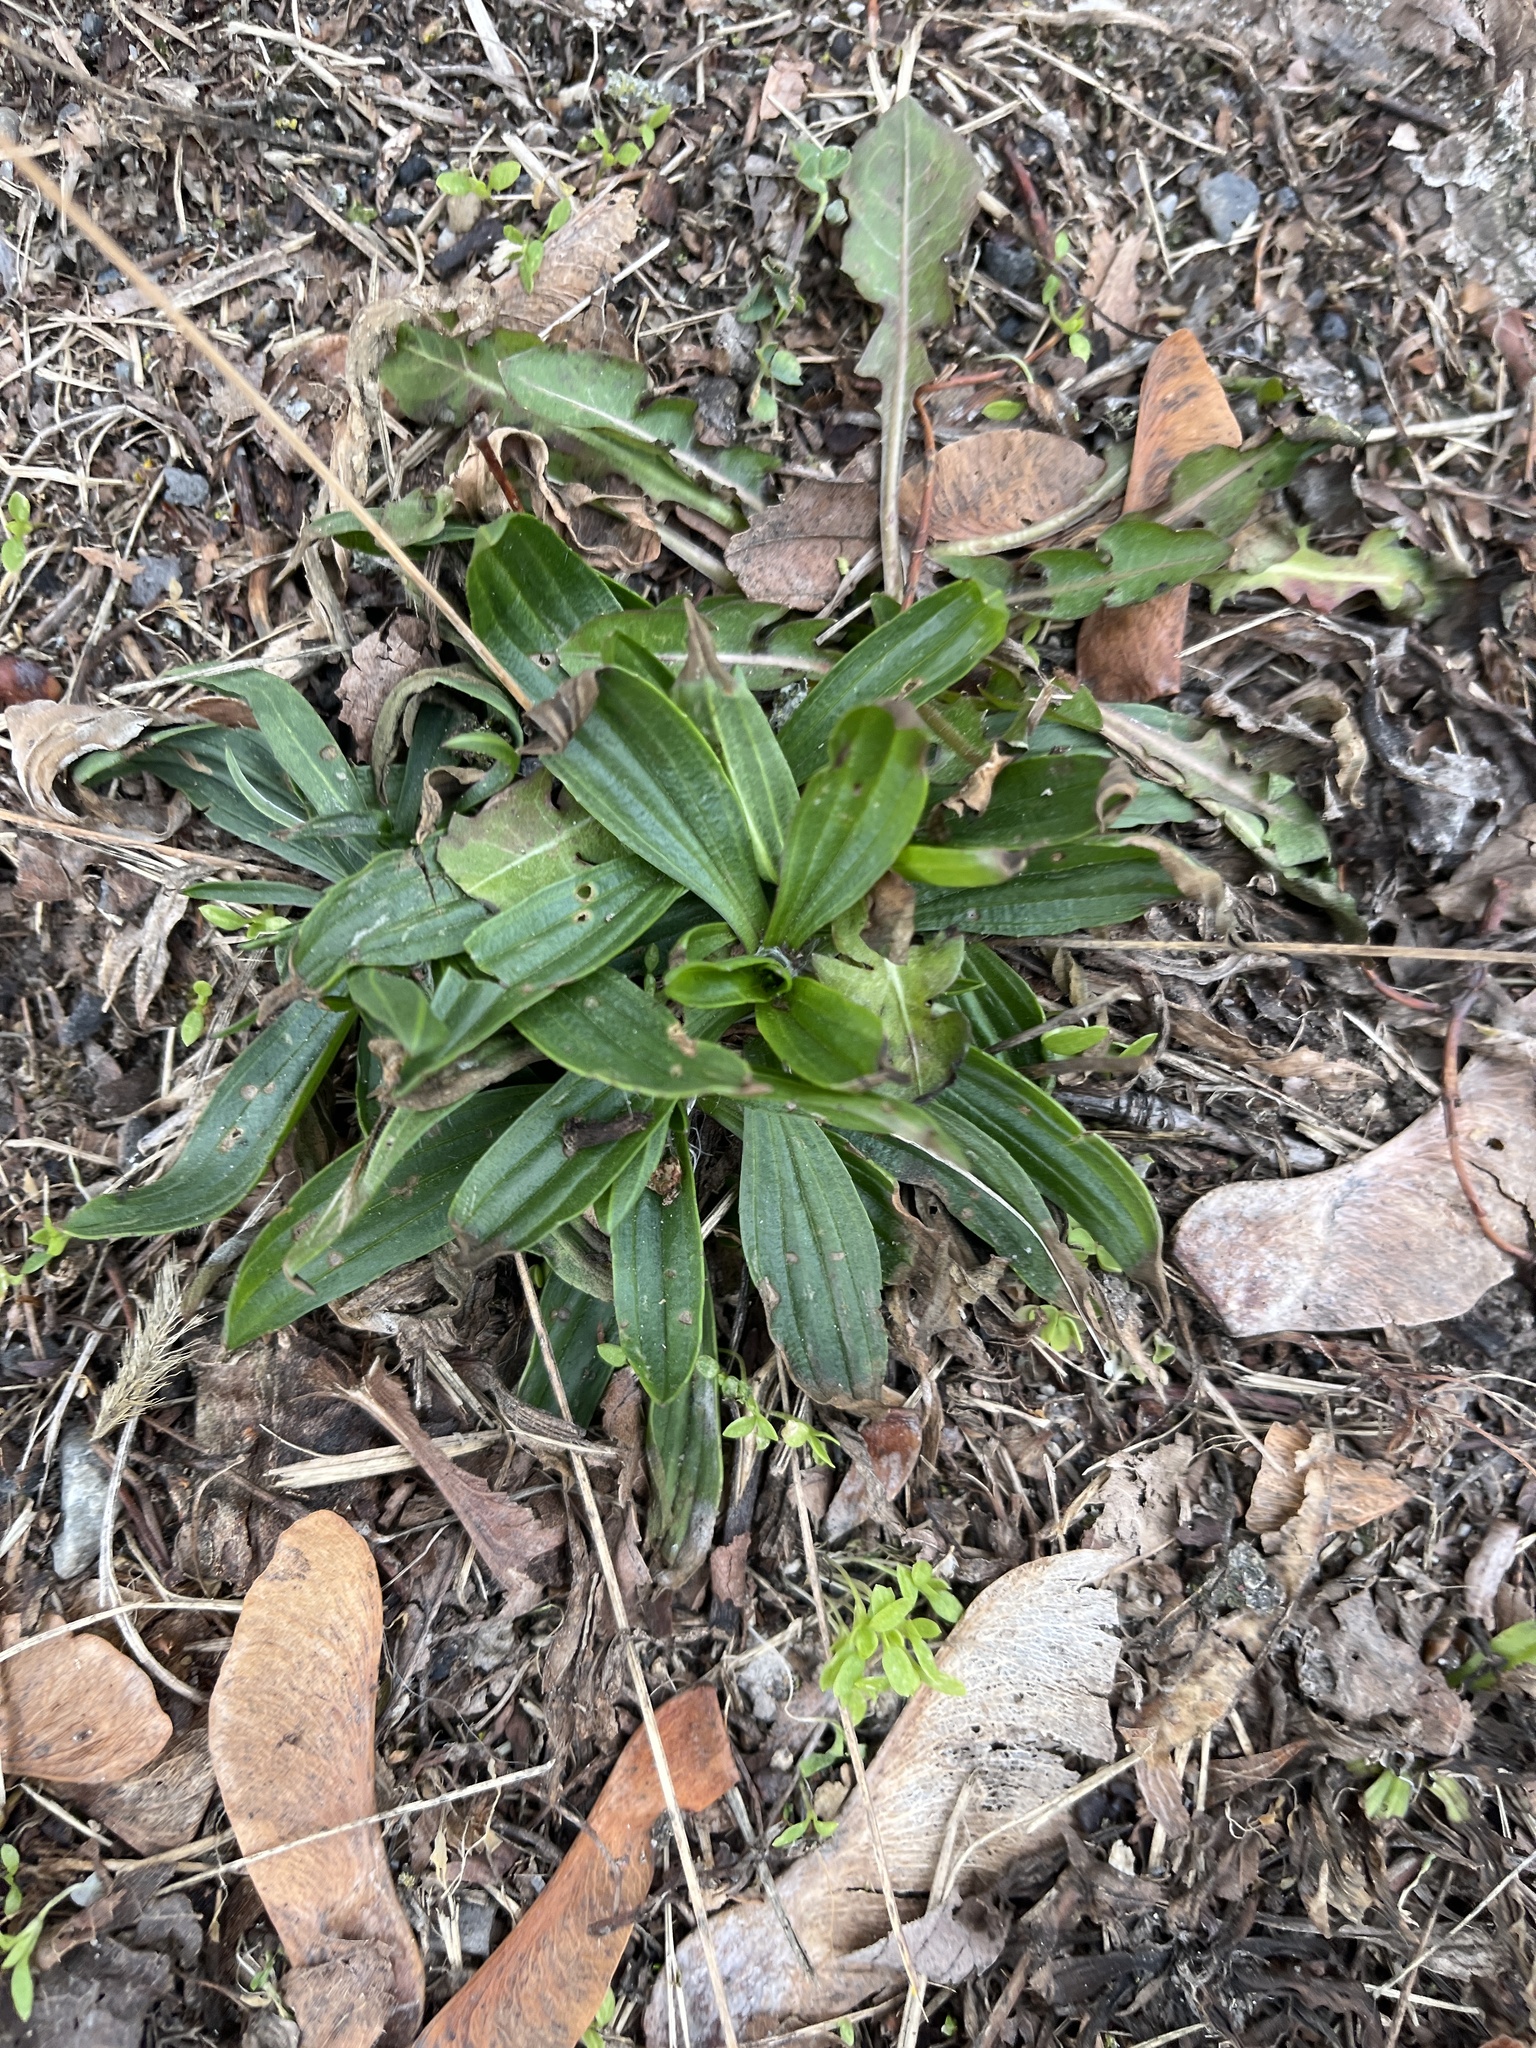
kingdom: Plantae
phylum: Tracheophyta
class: Magnoliopsida
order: Lamiales
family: Plantaginaceae
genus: Plantago
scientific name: Plantago lanceolata
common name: Ribwort plantain
